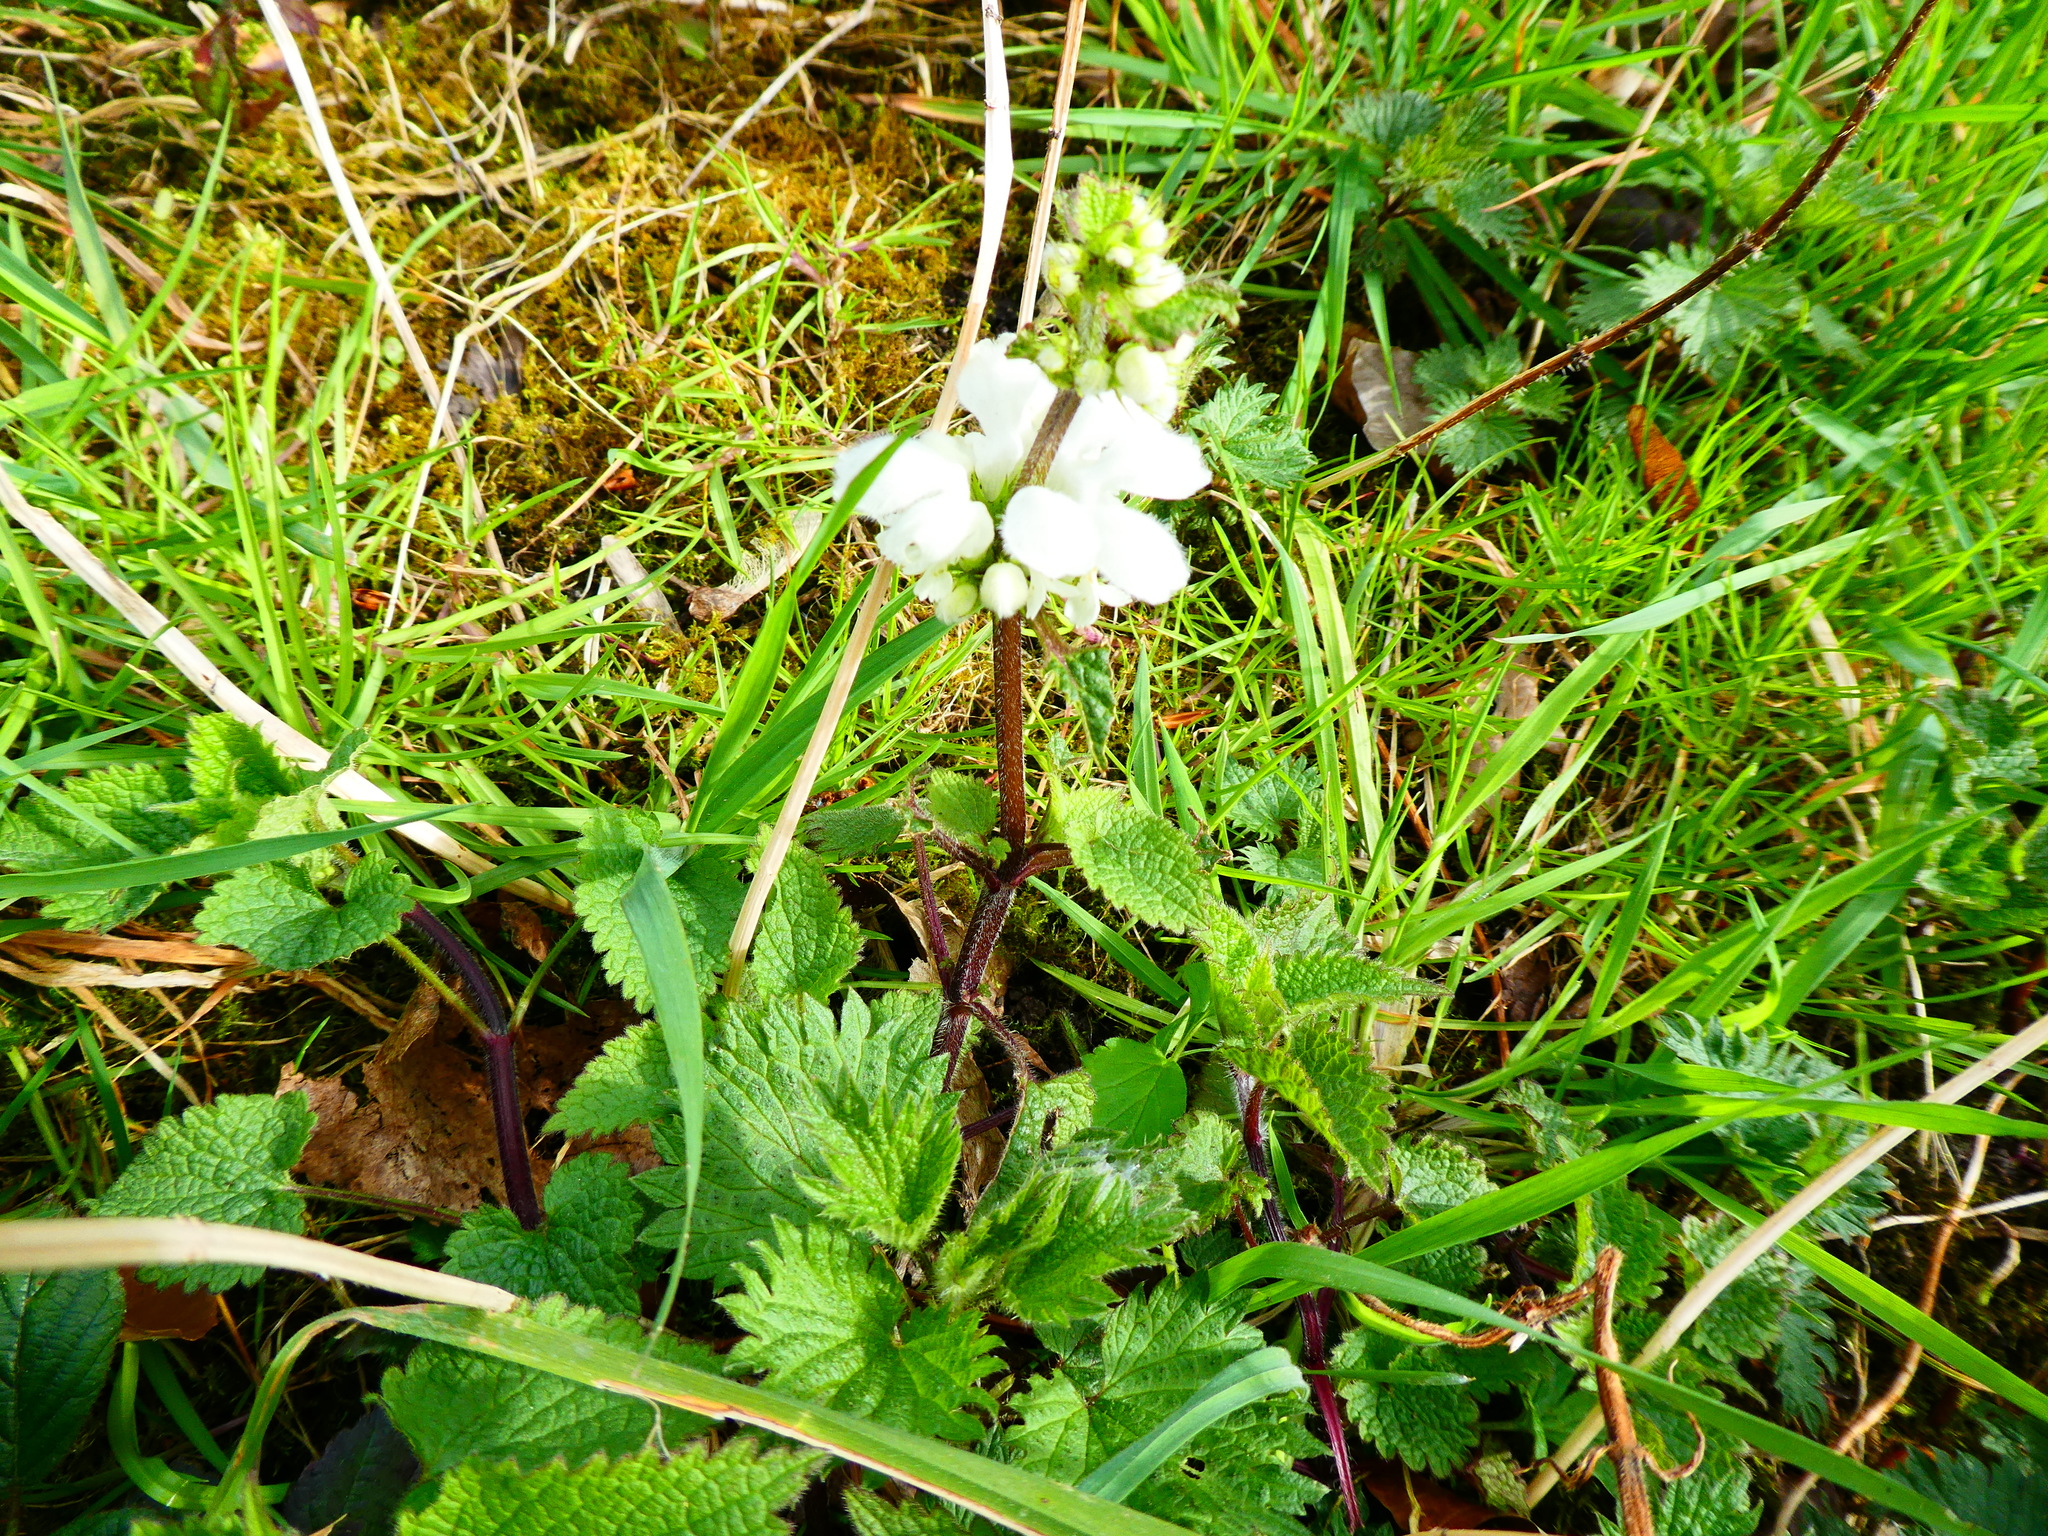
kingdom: Plantae
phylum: Tracheophyta
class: Magnoliopsida
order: Lamiales
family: Lamiaceae
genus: Lamium
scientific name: Lamium album
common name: White dead-nettle
